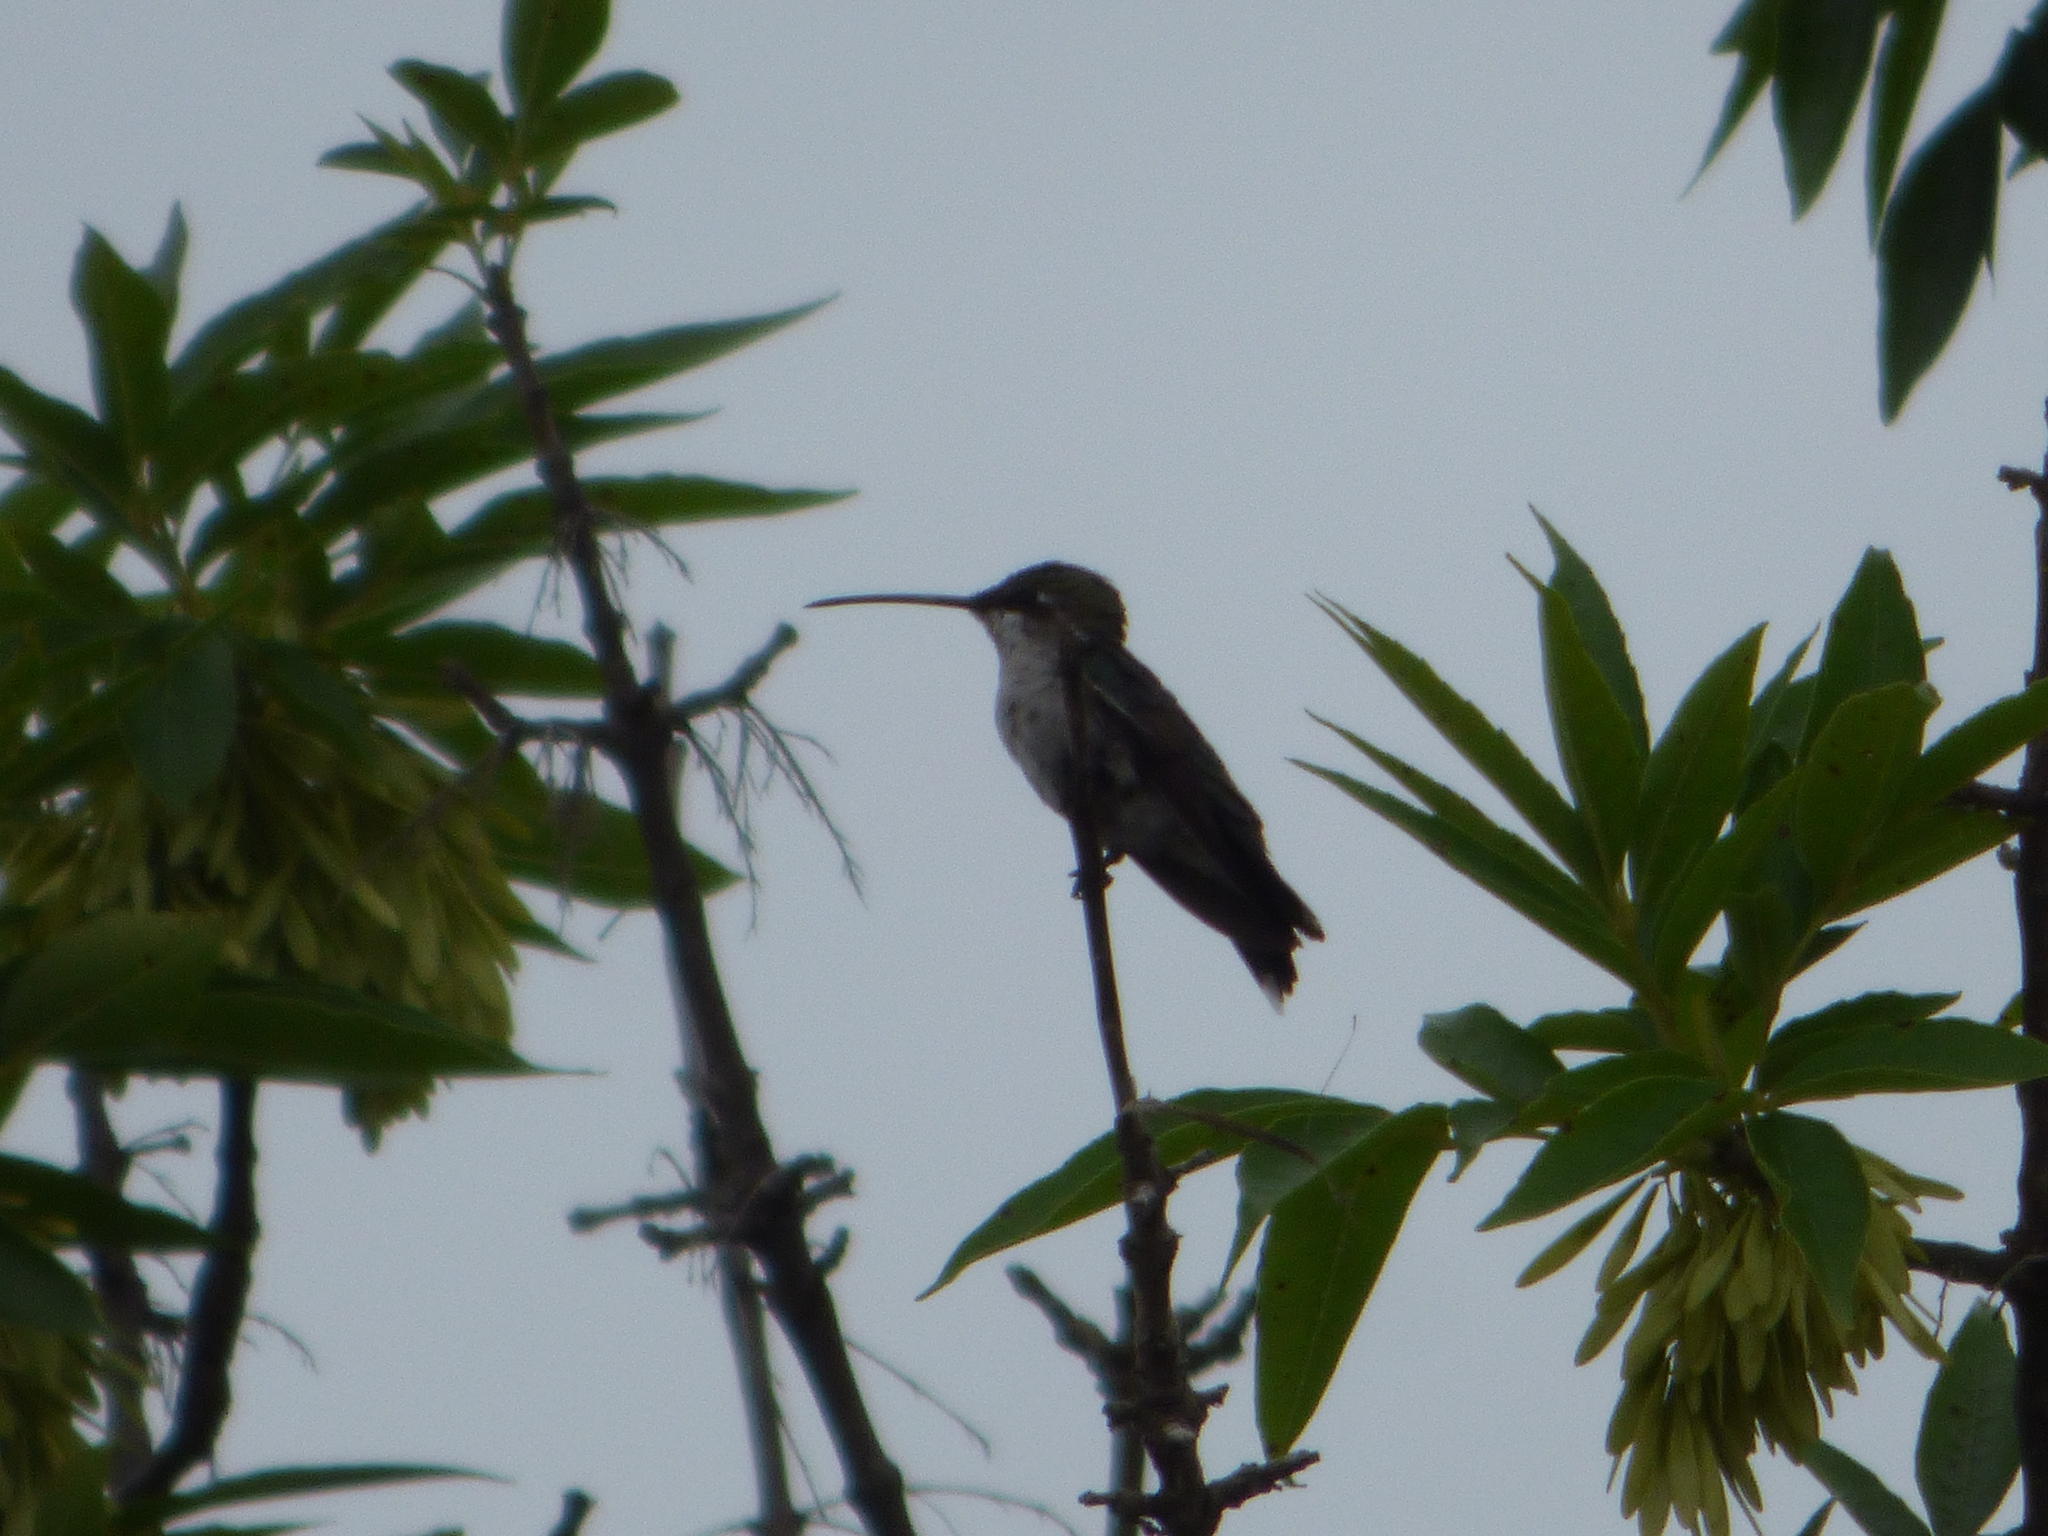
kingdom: Animalia
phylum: Chordata
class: Aves
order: Apodiformes
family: Trochilidae
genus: Heliomaster
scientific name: Heliomaster furcifer
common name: Blue-tufted starthroat
